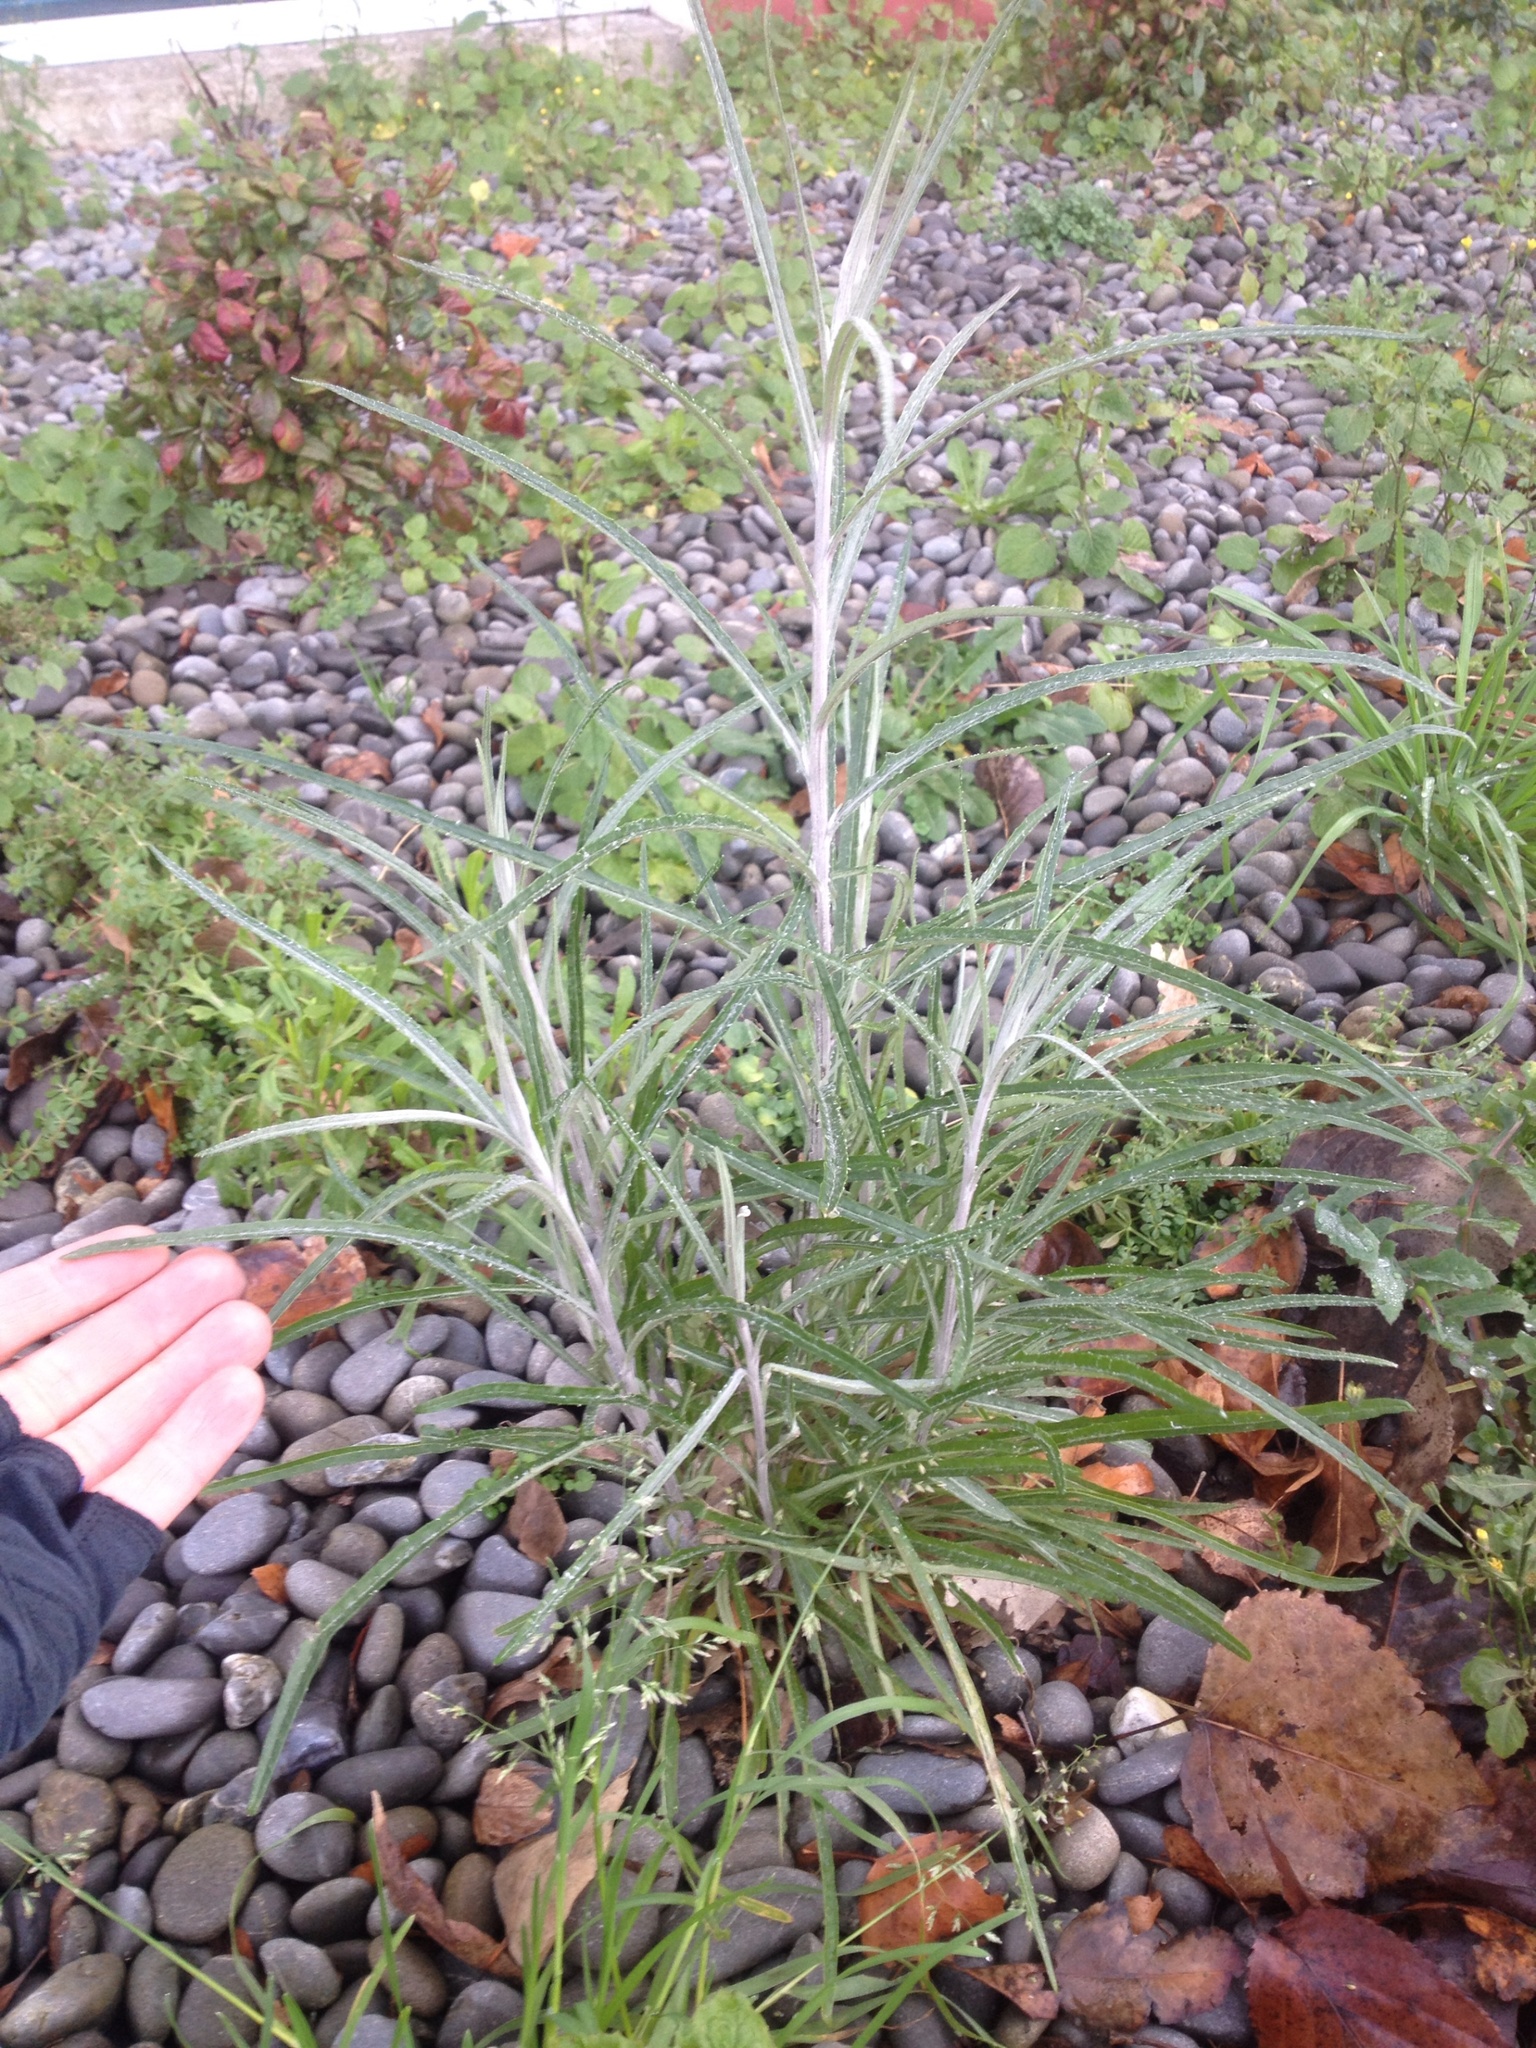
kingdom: Plantae
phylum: Tracheophyta
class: Magnoliopsida
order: Asterales
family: Asteraceae
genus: Senecio
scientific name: Senecio quadridentatus
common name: Cotton fireweed
